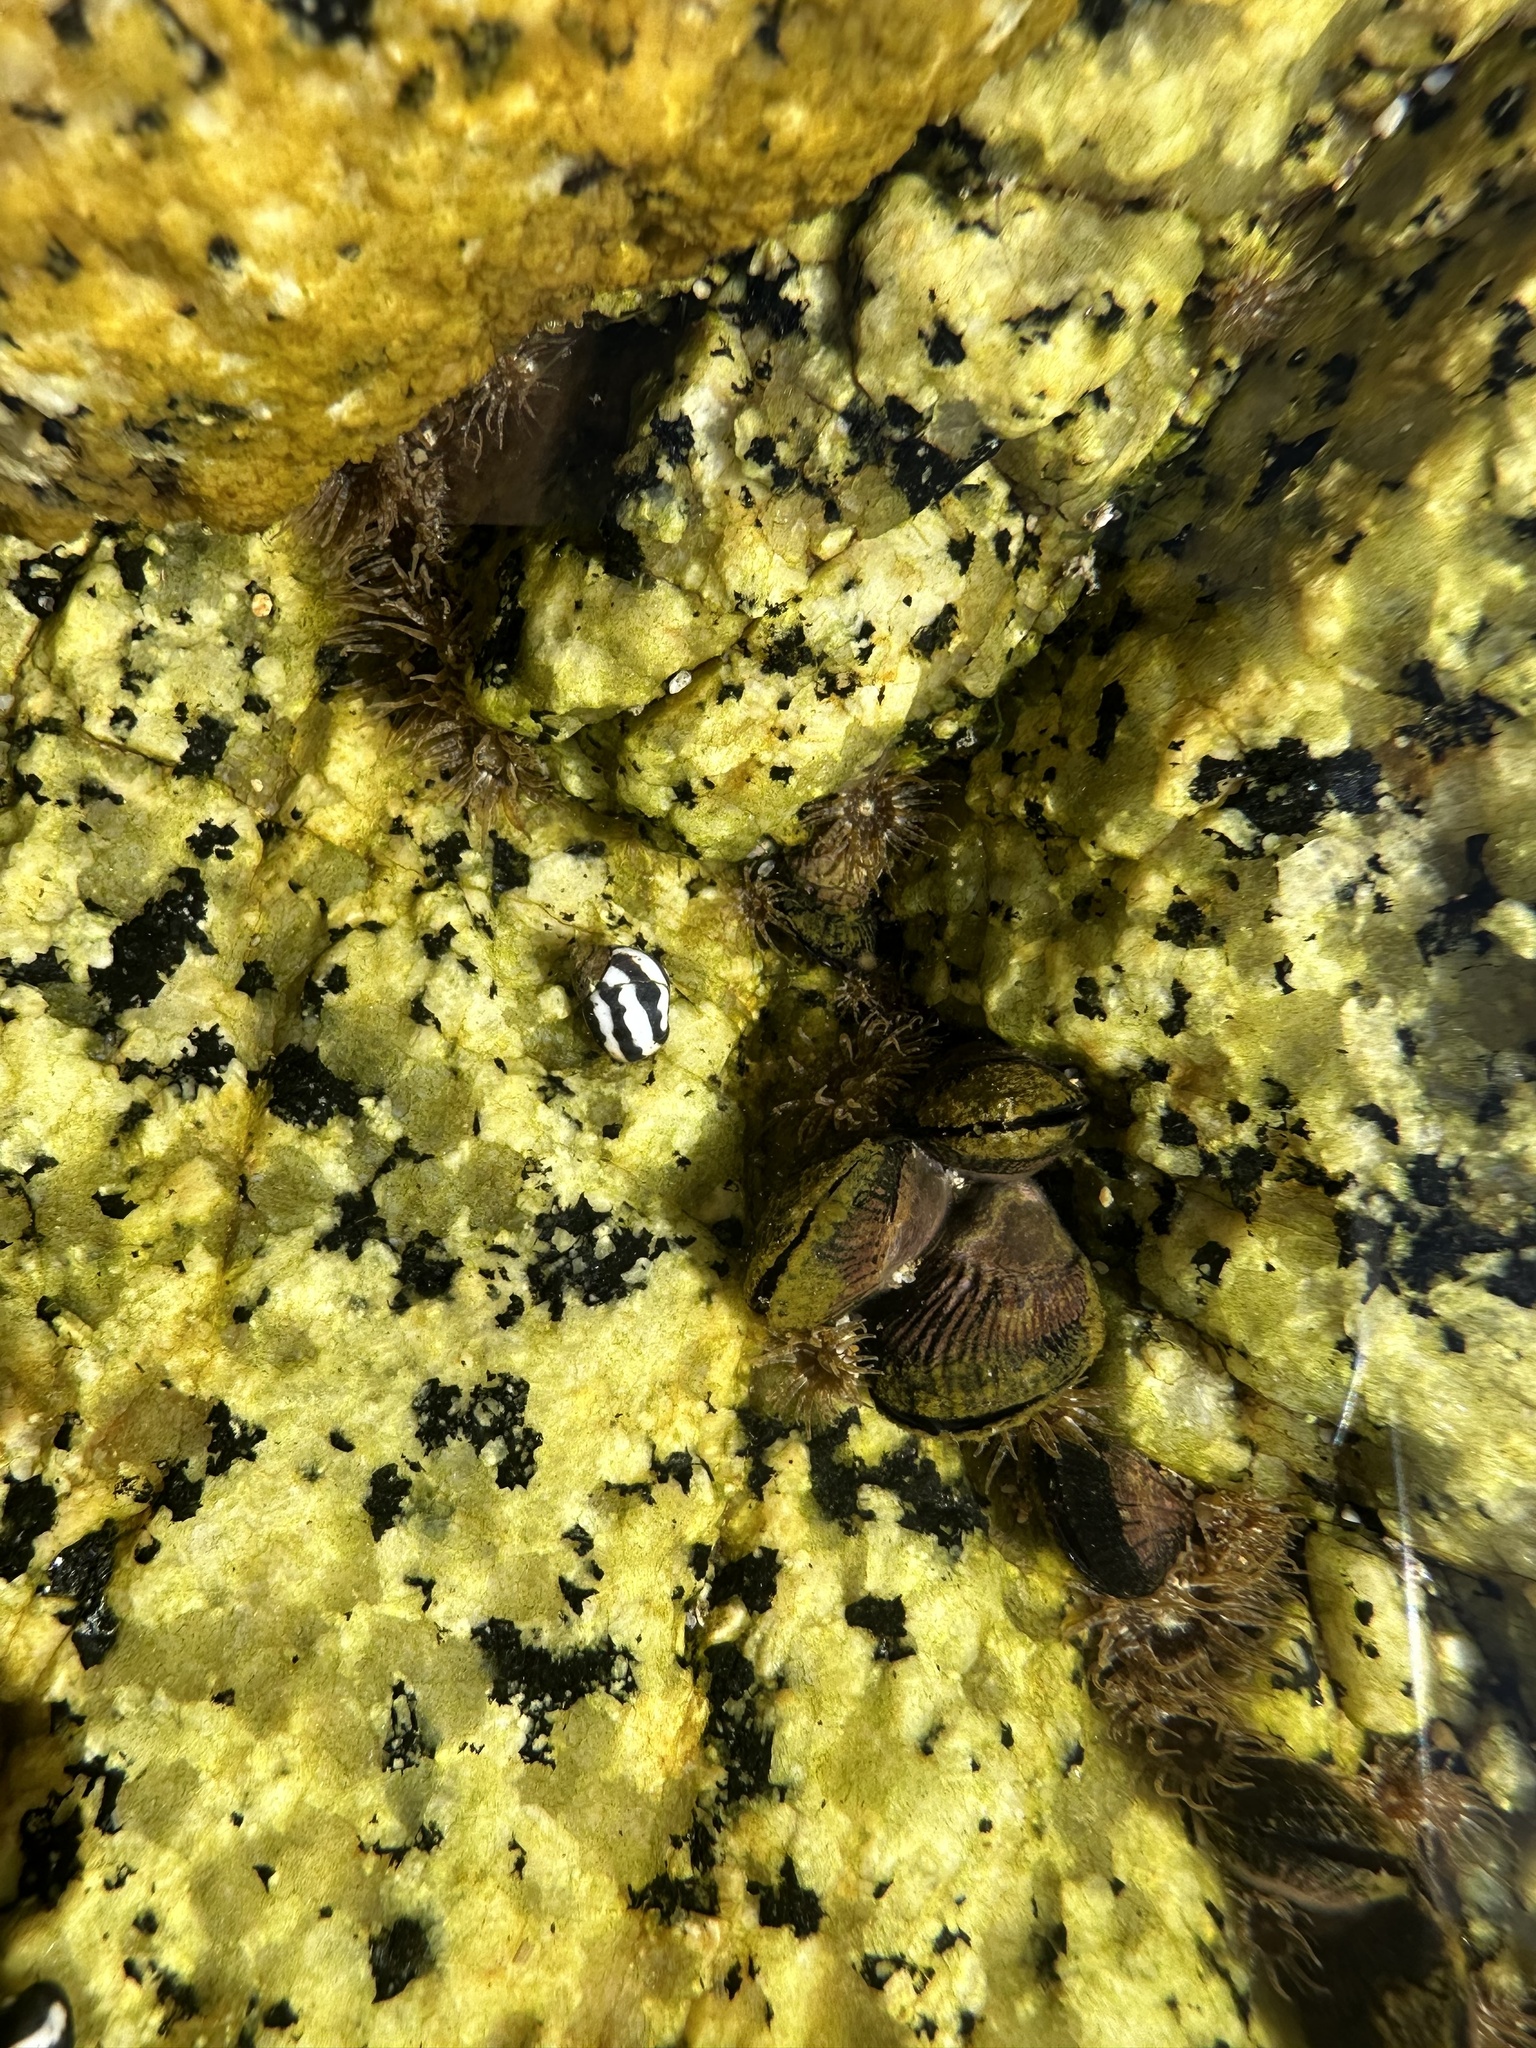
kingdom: Animalia
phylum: Mollusca
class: Bivalvia
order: Mytilida
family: Mytilidae
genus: Perumytilus
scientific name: Perumytilus purpuratus
